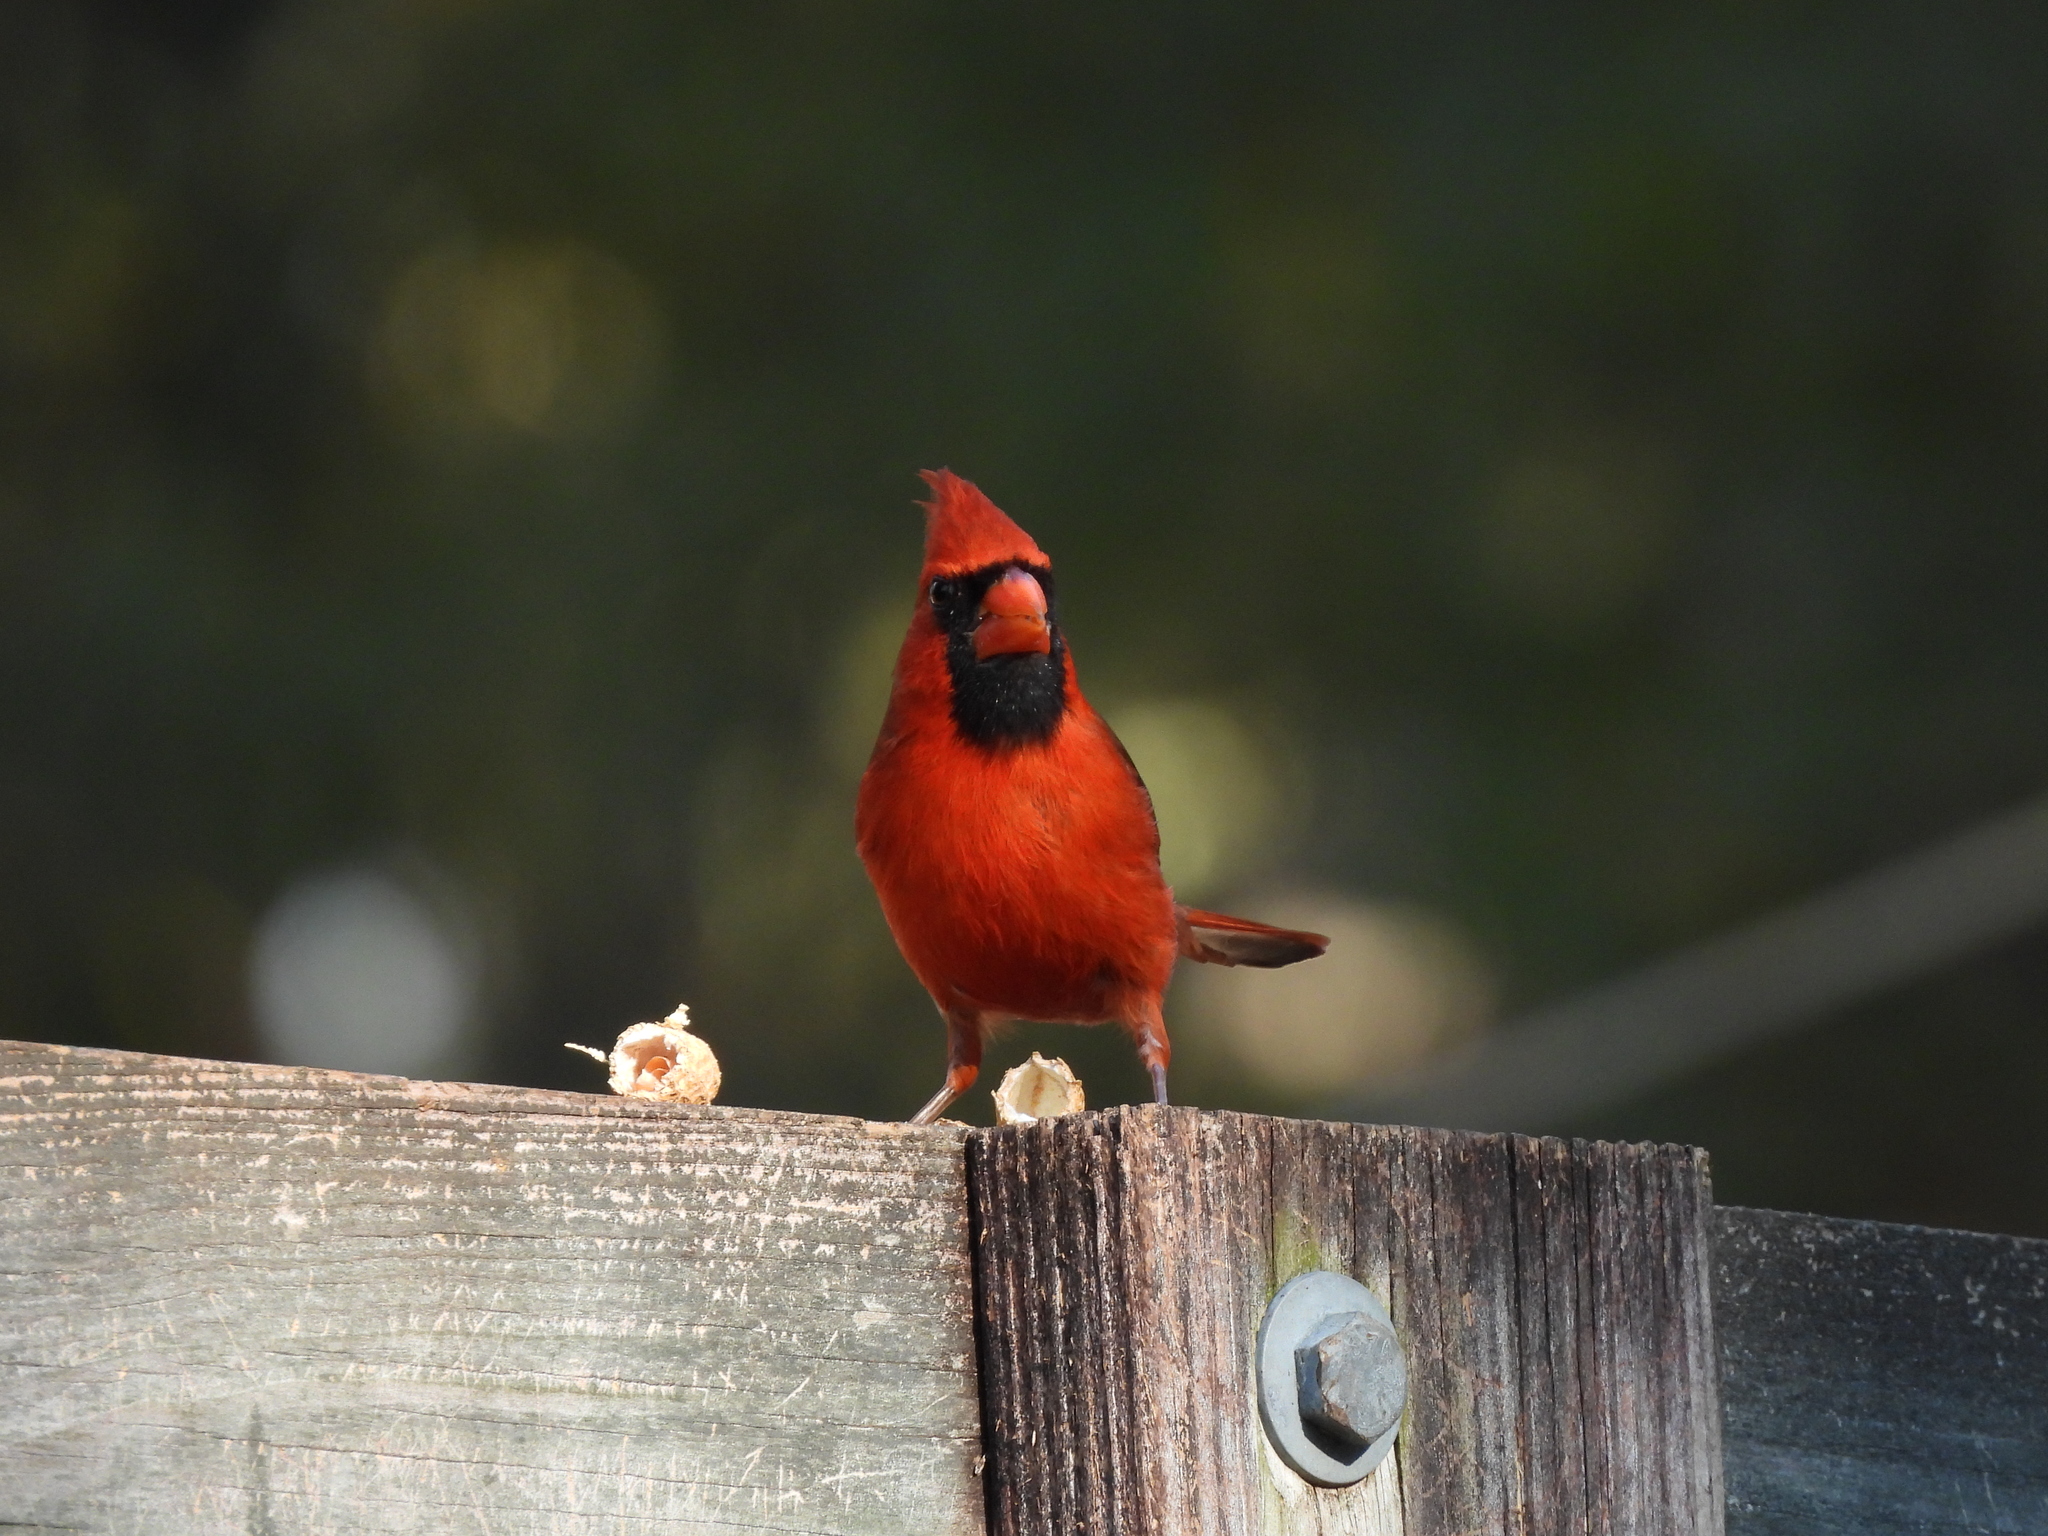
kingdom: Animalia
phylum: Chordata
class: Aves
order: Passeriformes
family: Cardinalidae
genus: Cardinalis
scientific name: Cardinalis cardinalis
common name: Northern cardinal
